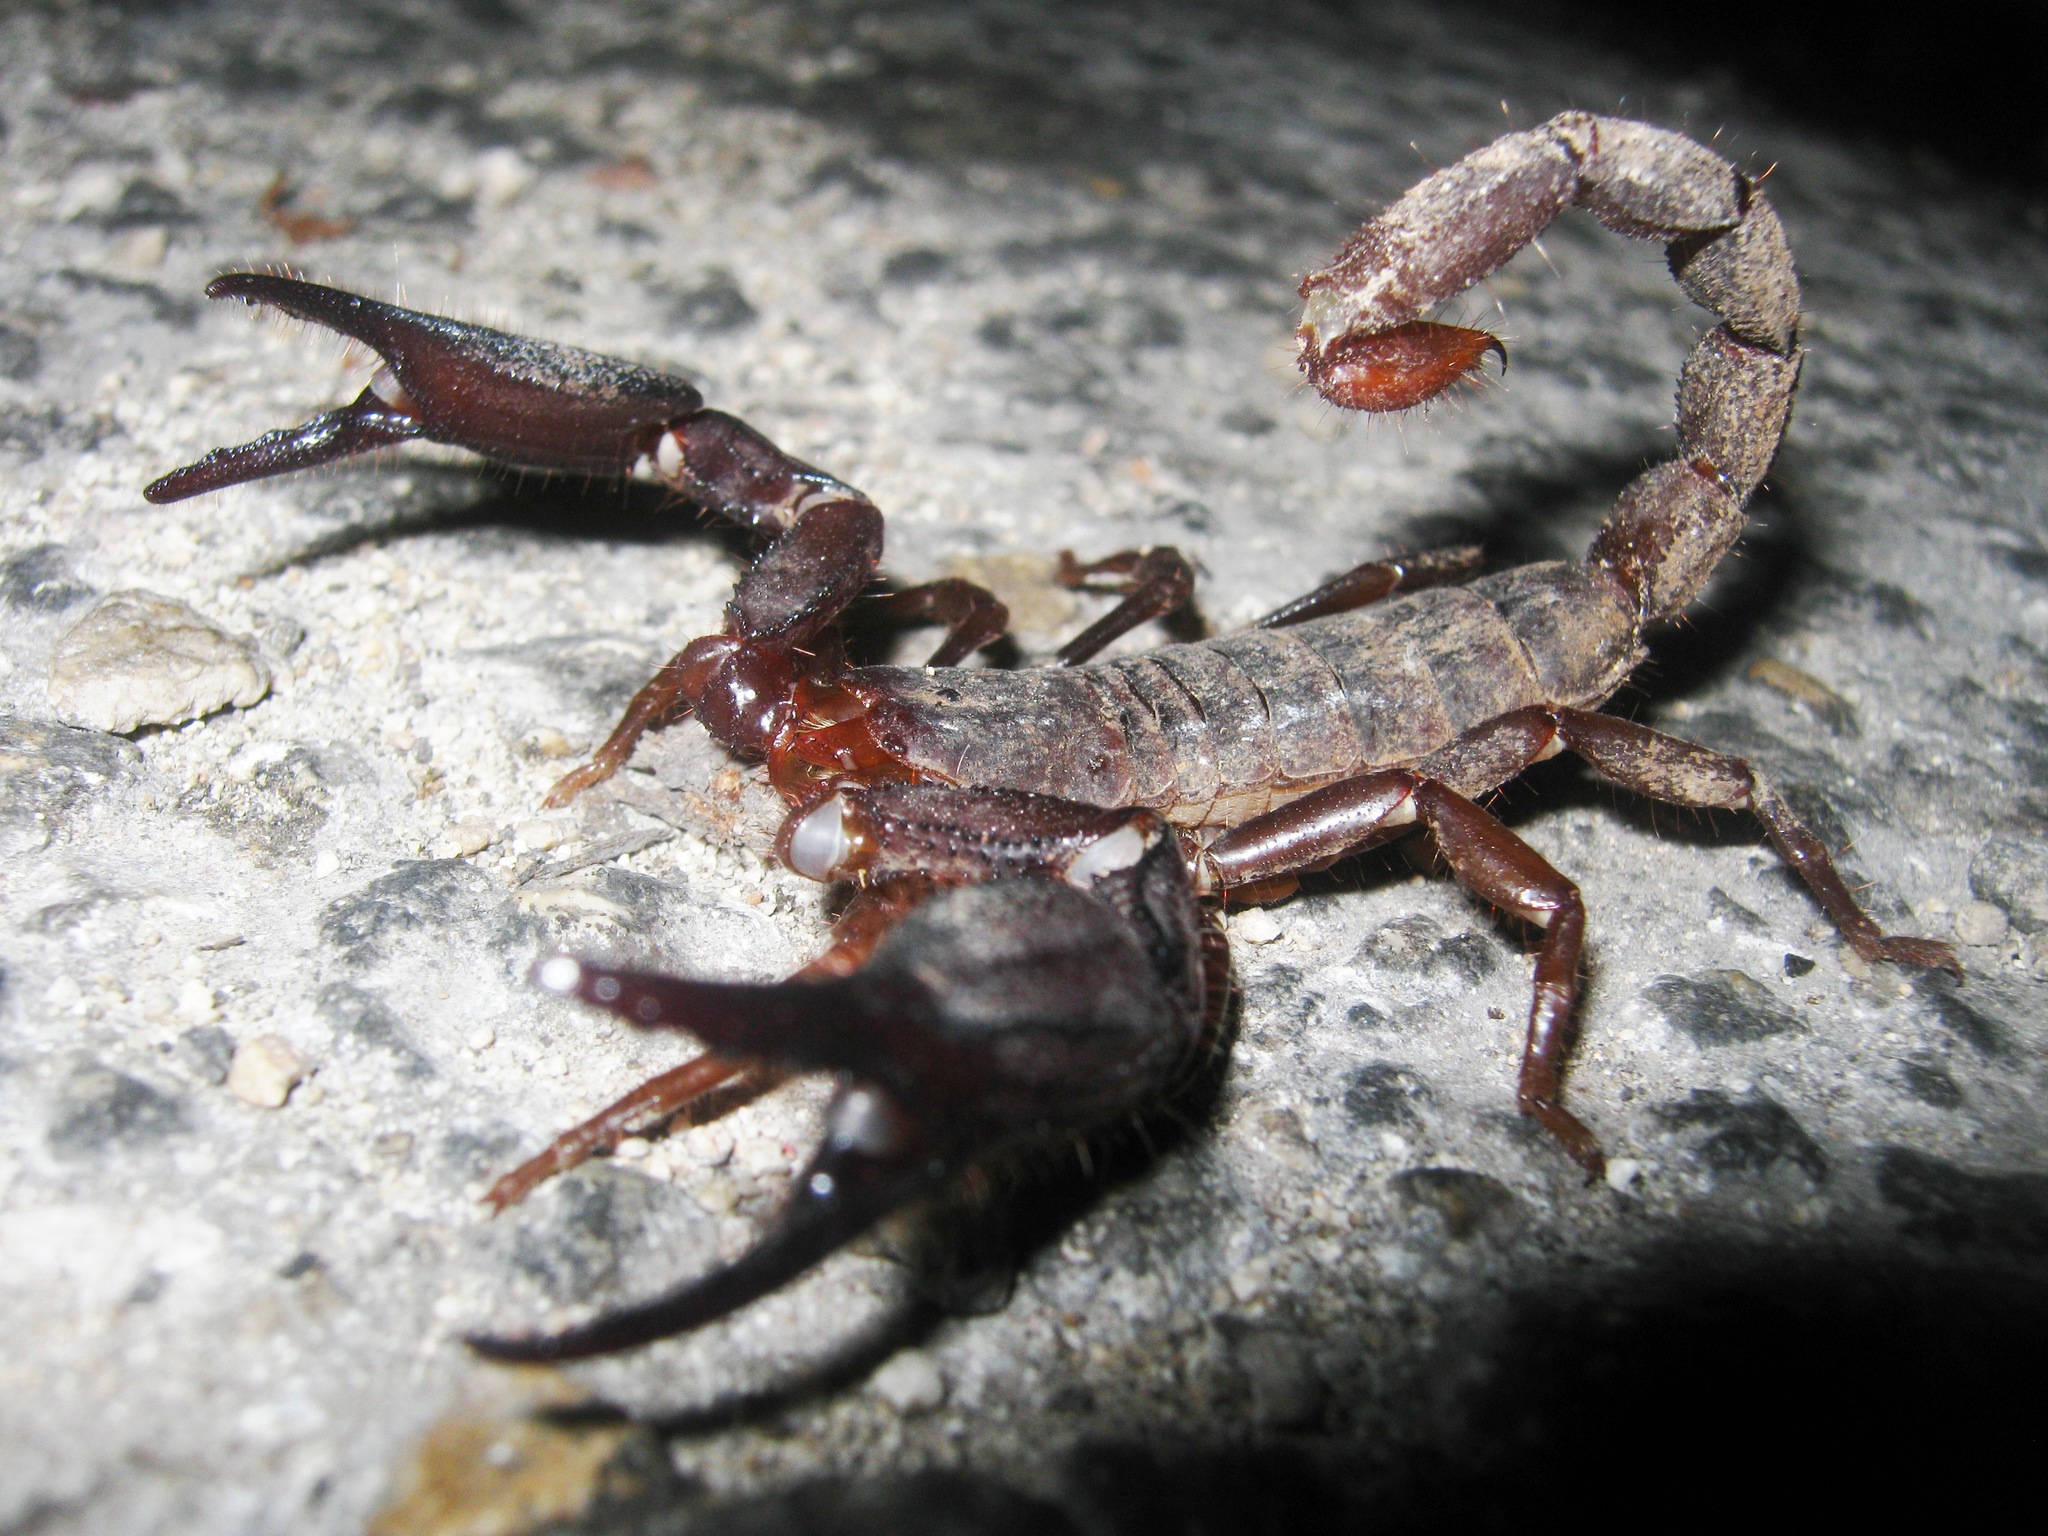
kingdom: Animalia
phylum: Arthropoda
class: Arachnida
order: Scorpiones
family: Diplocentridae
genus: Diplocentrus
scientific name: Diplocentrus reddelli
